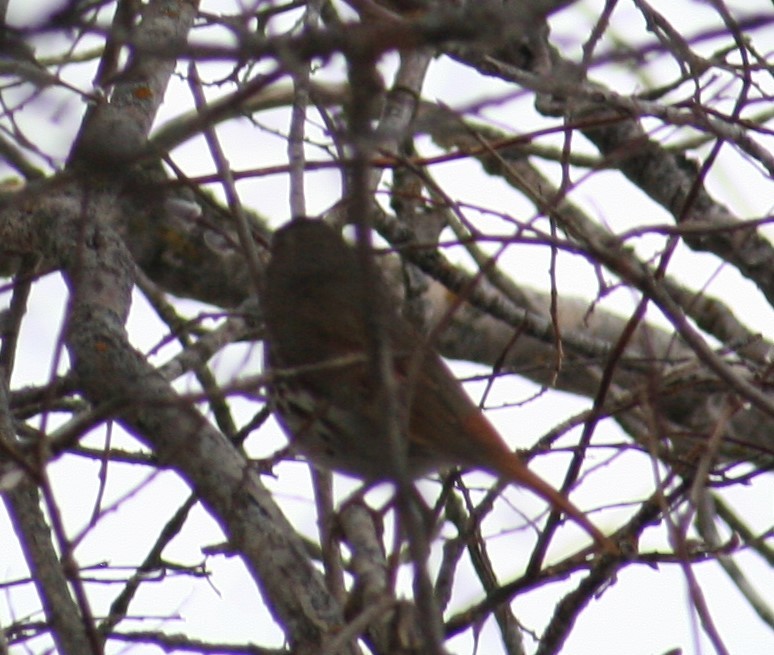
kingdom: Animalia
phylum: Chordata
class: Aves
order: Passeriformes
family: Passerellidae
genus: Passerella
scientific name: Passerella iliaca
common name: Fox sparrow
